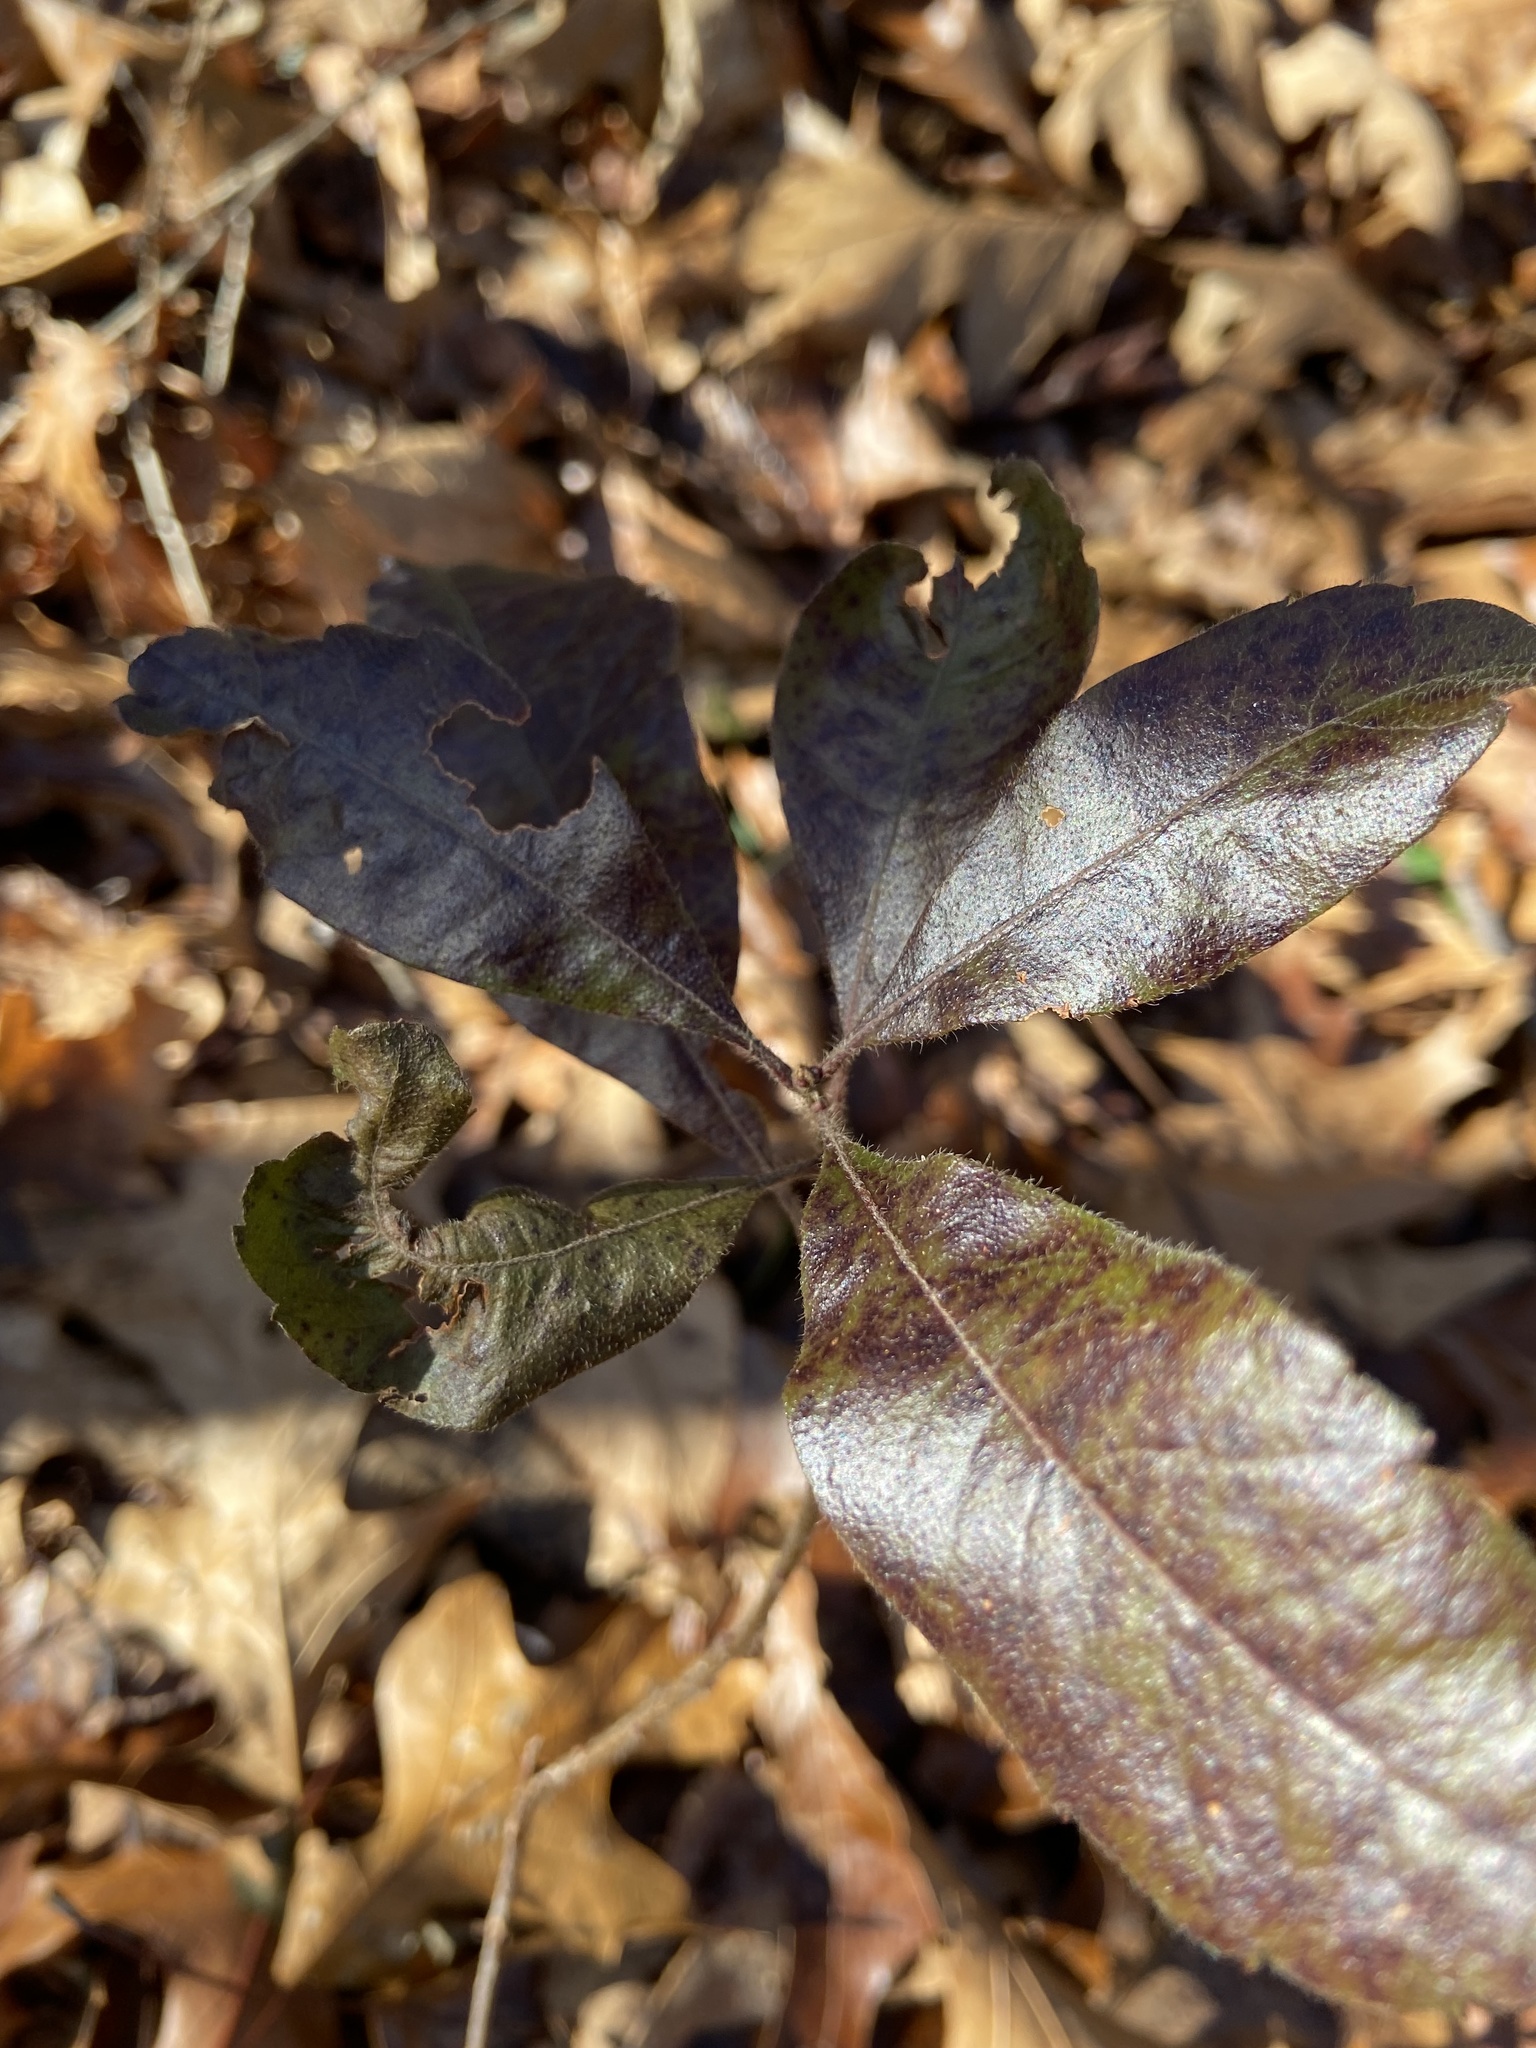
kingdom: Plantae
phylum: Tracheophyta
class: Magnoliopsida
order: Fagales
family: Myricaceae
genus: Morella
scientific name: Morella pensylvanica
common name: Northern bayberry
